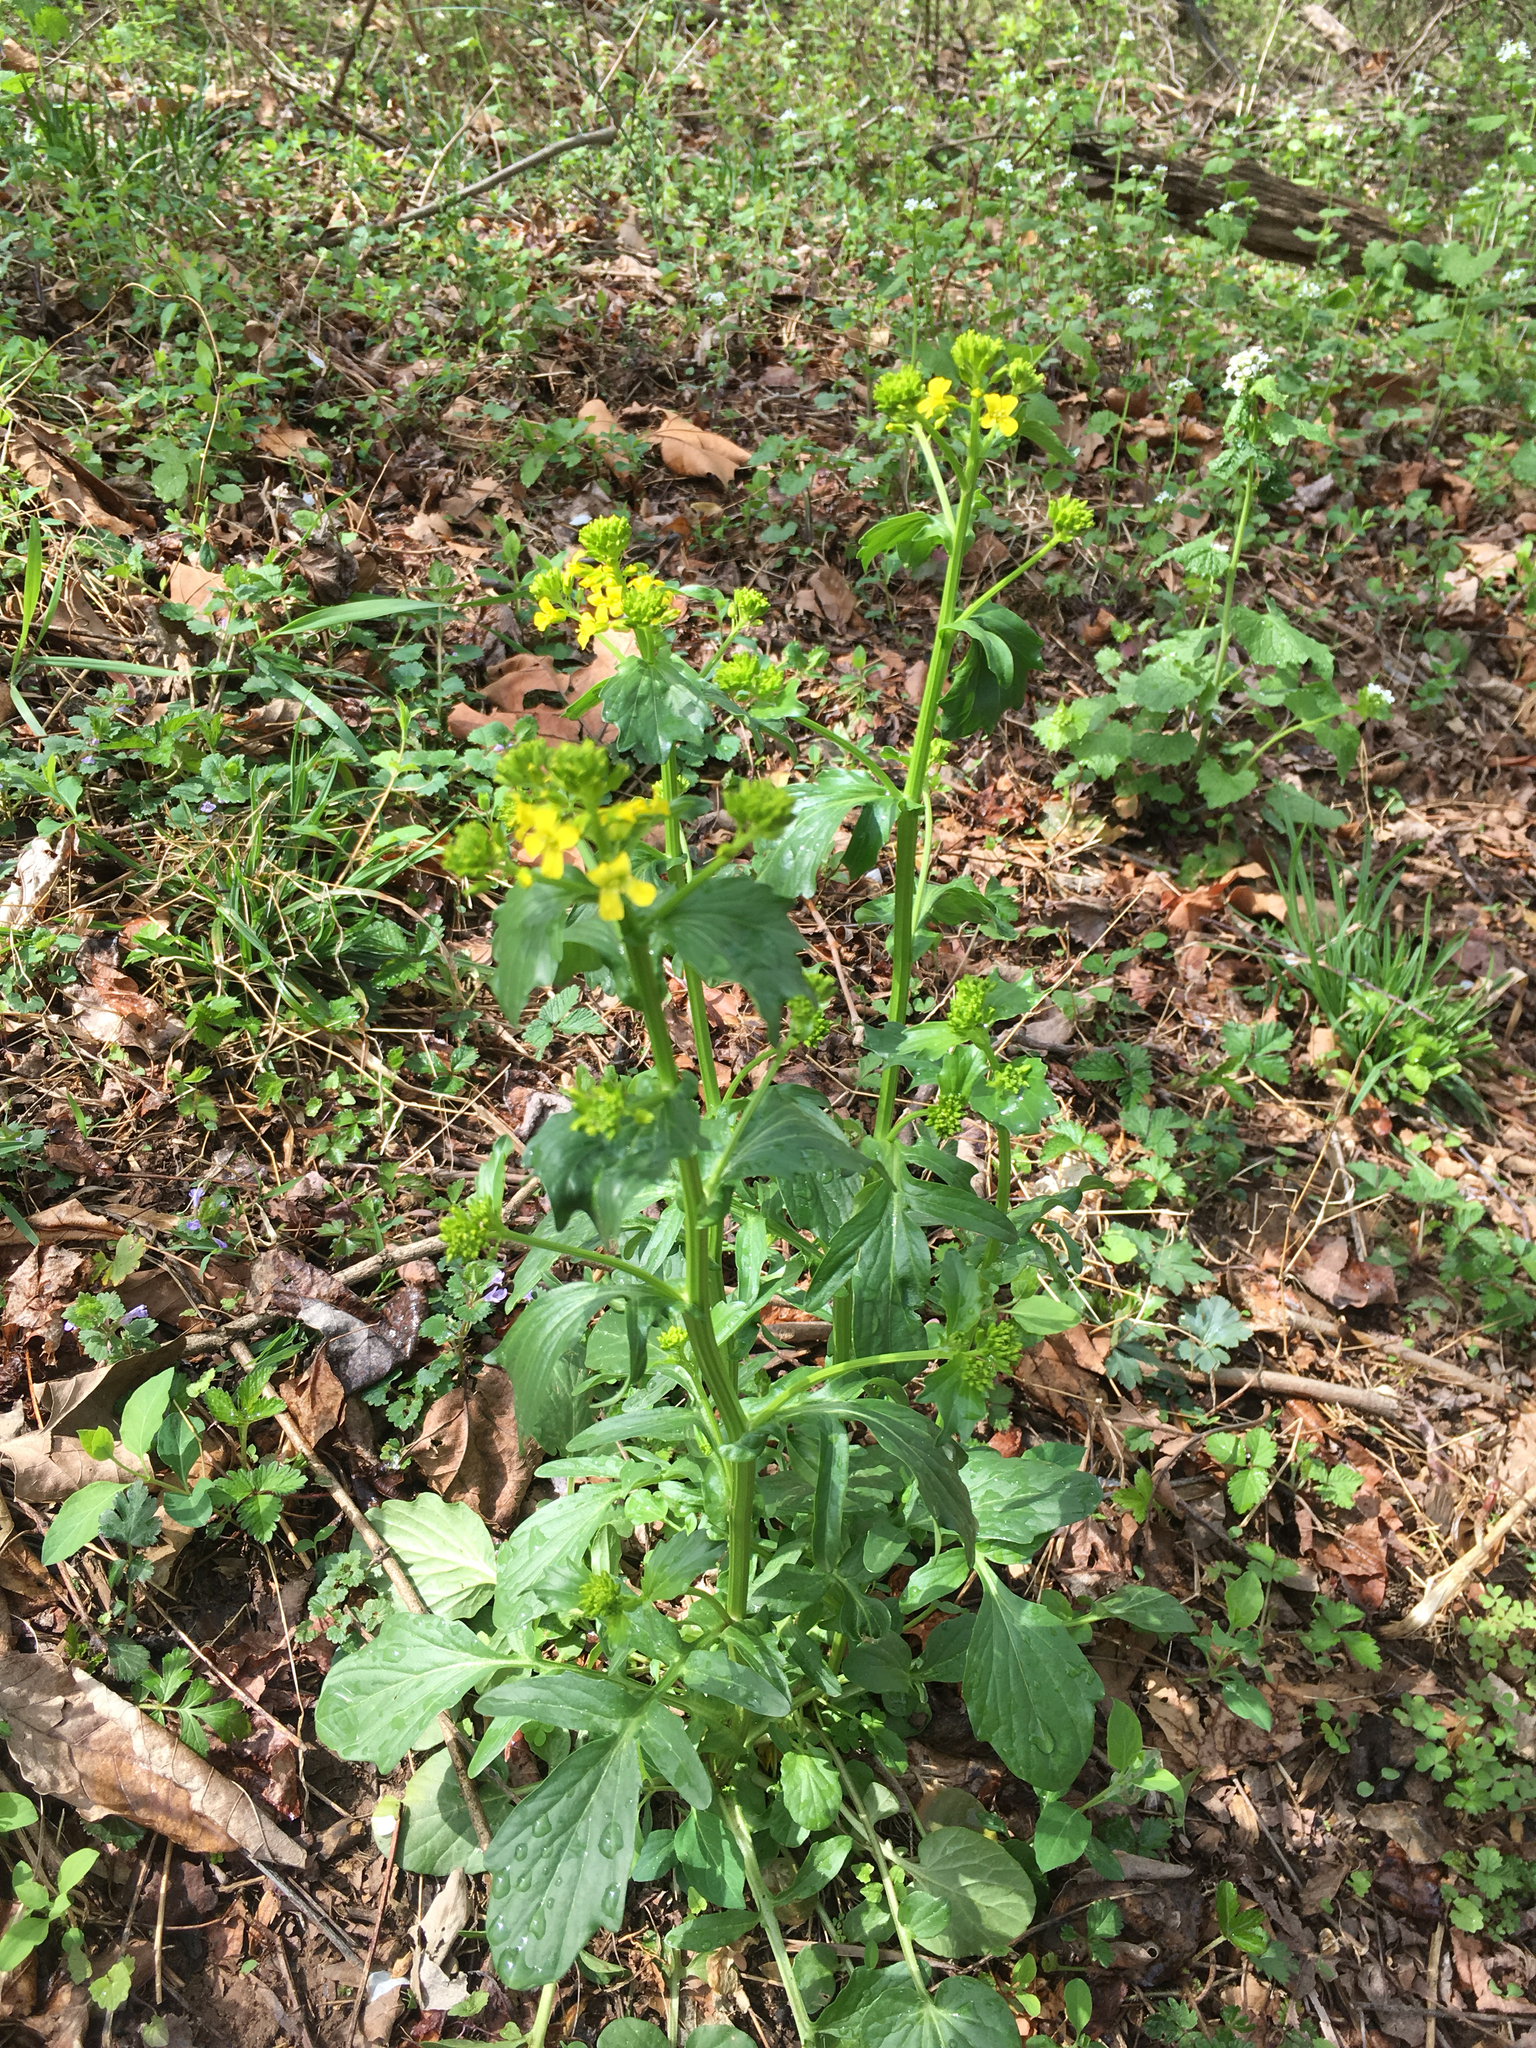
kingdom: Plantae
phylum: Tracheophyta
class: Magnoliopsida
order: Brassicales
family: Brassicaceae
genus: Barbarea
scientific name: Barbarea vulgaris
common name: Cressy-greens
